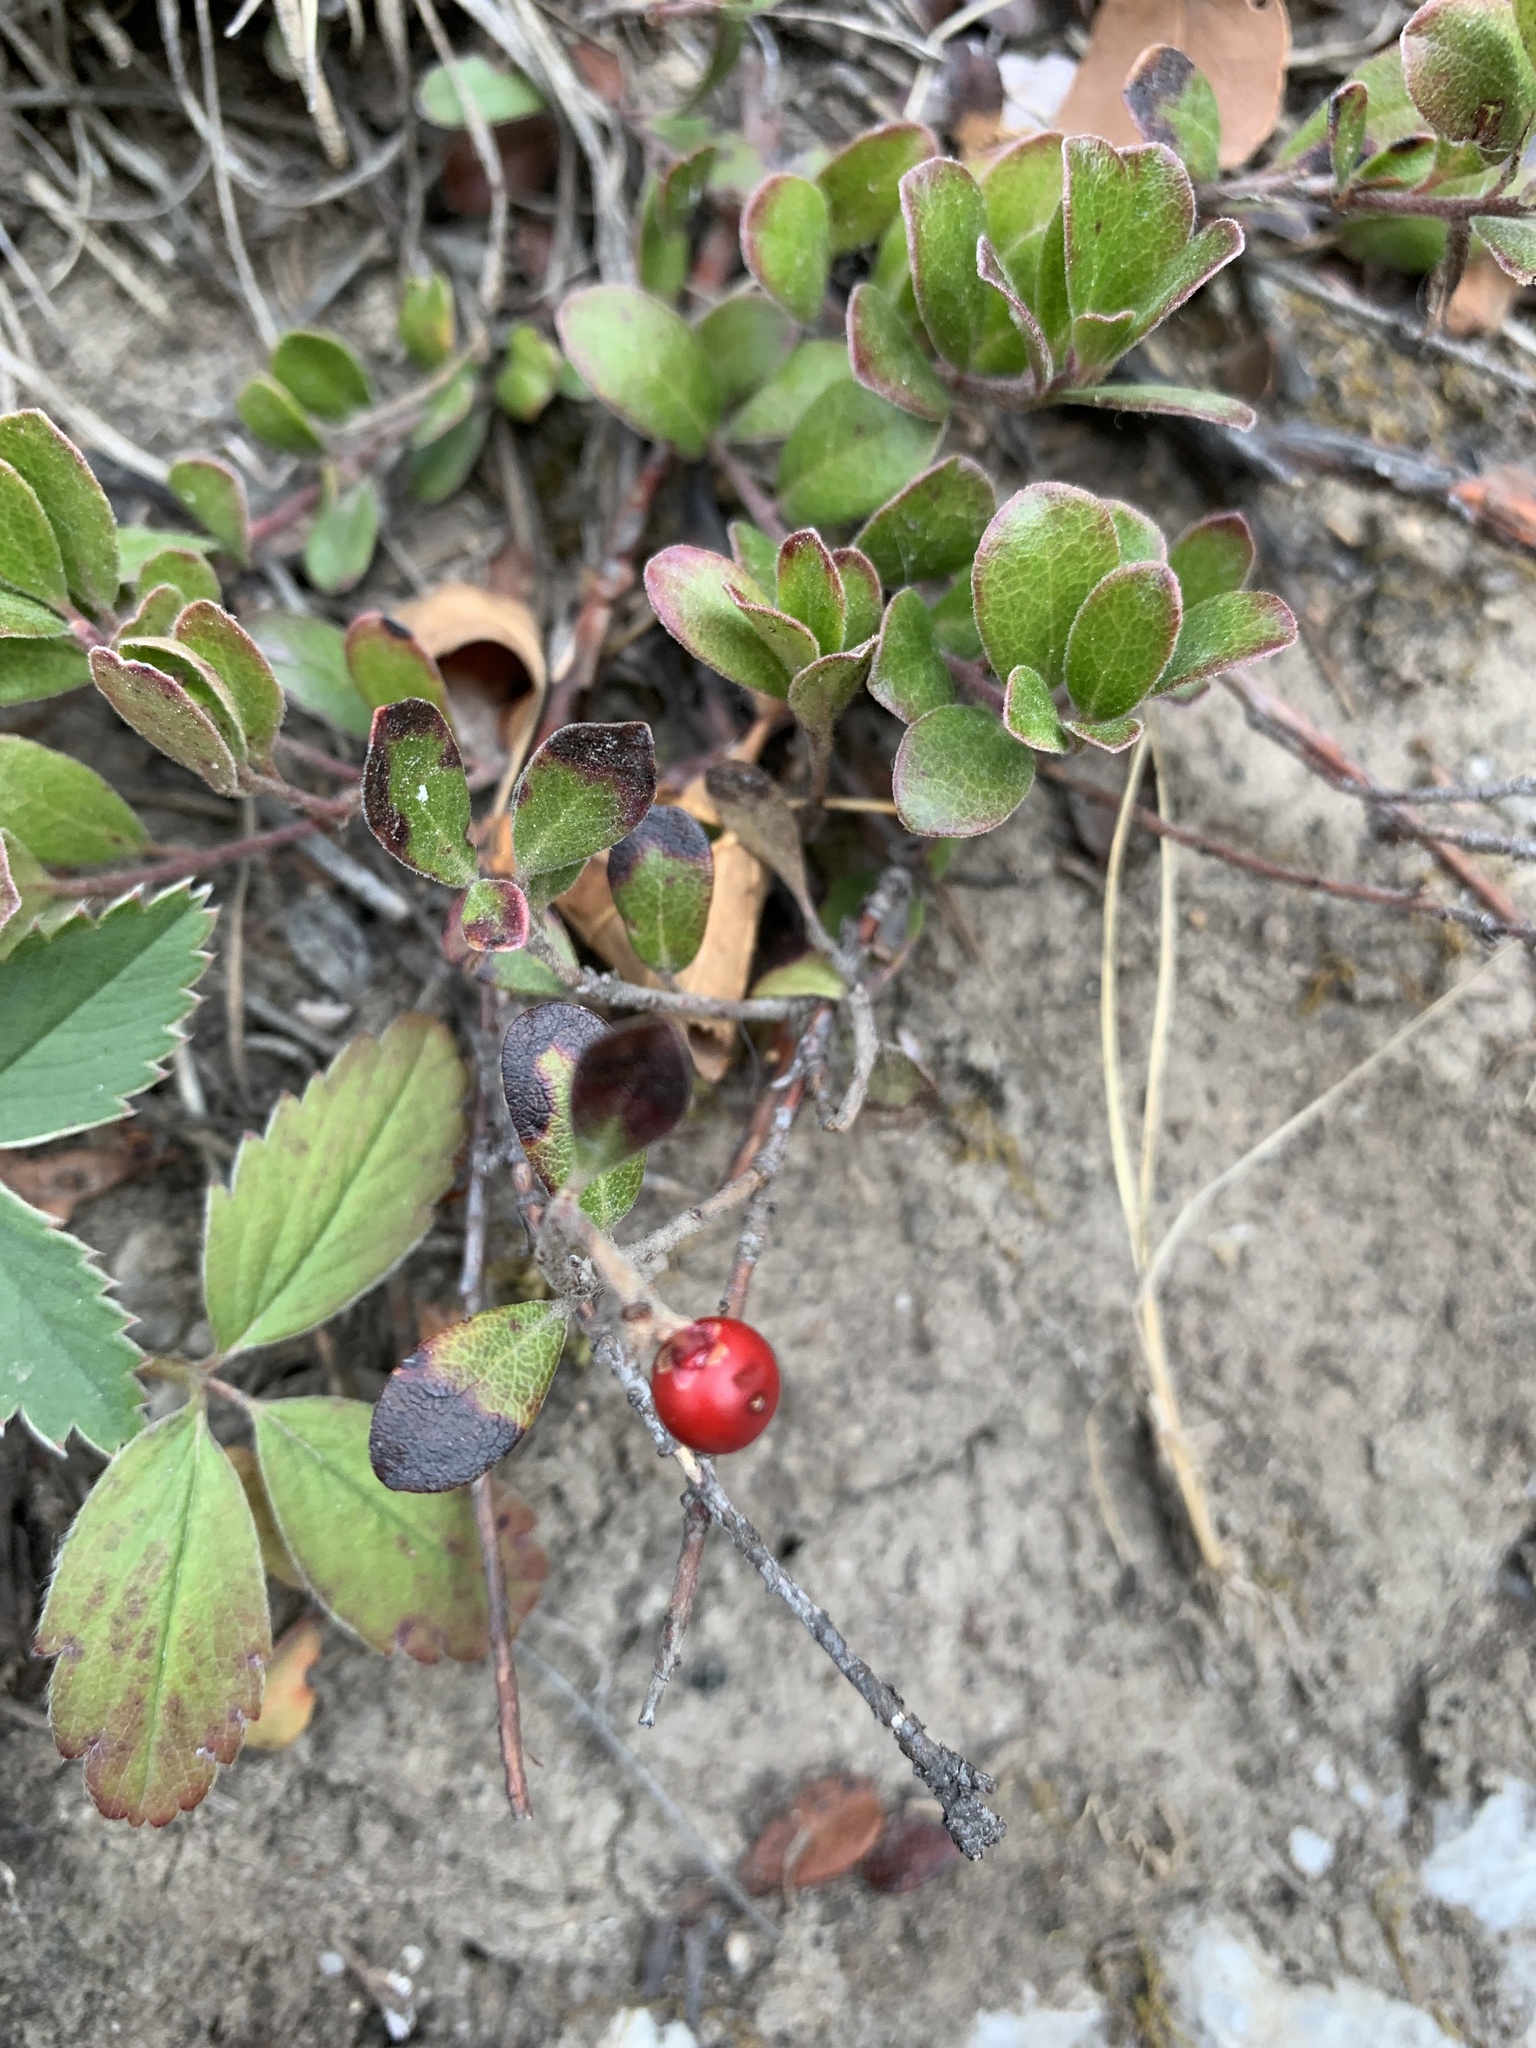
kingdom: Plantae
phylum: Tracheophyta
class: Magnoliopsida
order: Ericales
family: Ericaceae
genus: Arctostaphylos
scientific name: Arctostaphylos uva-ursi
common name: Bearberry
